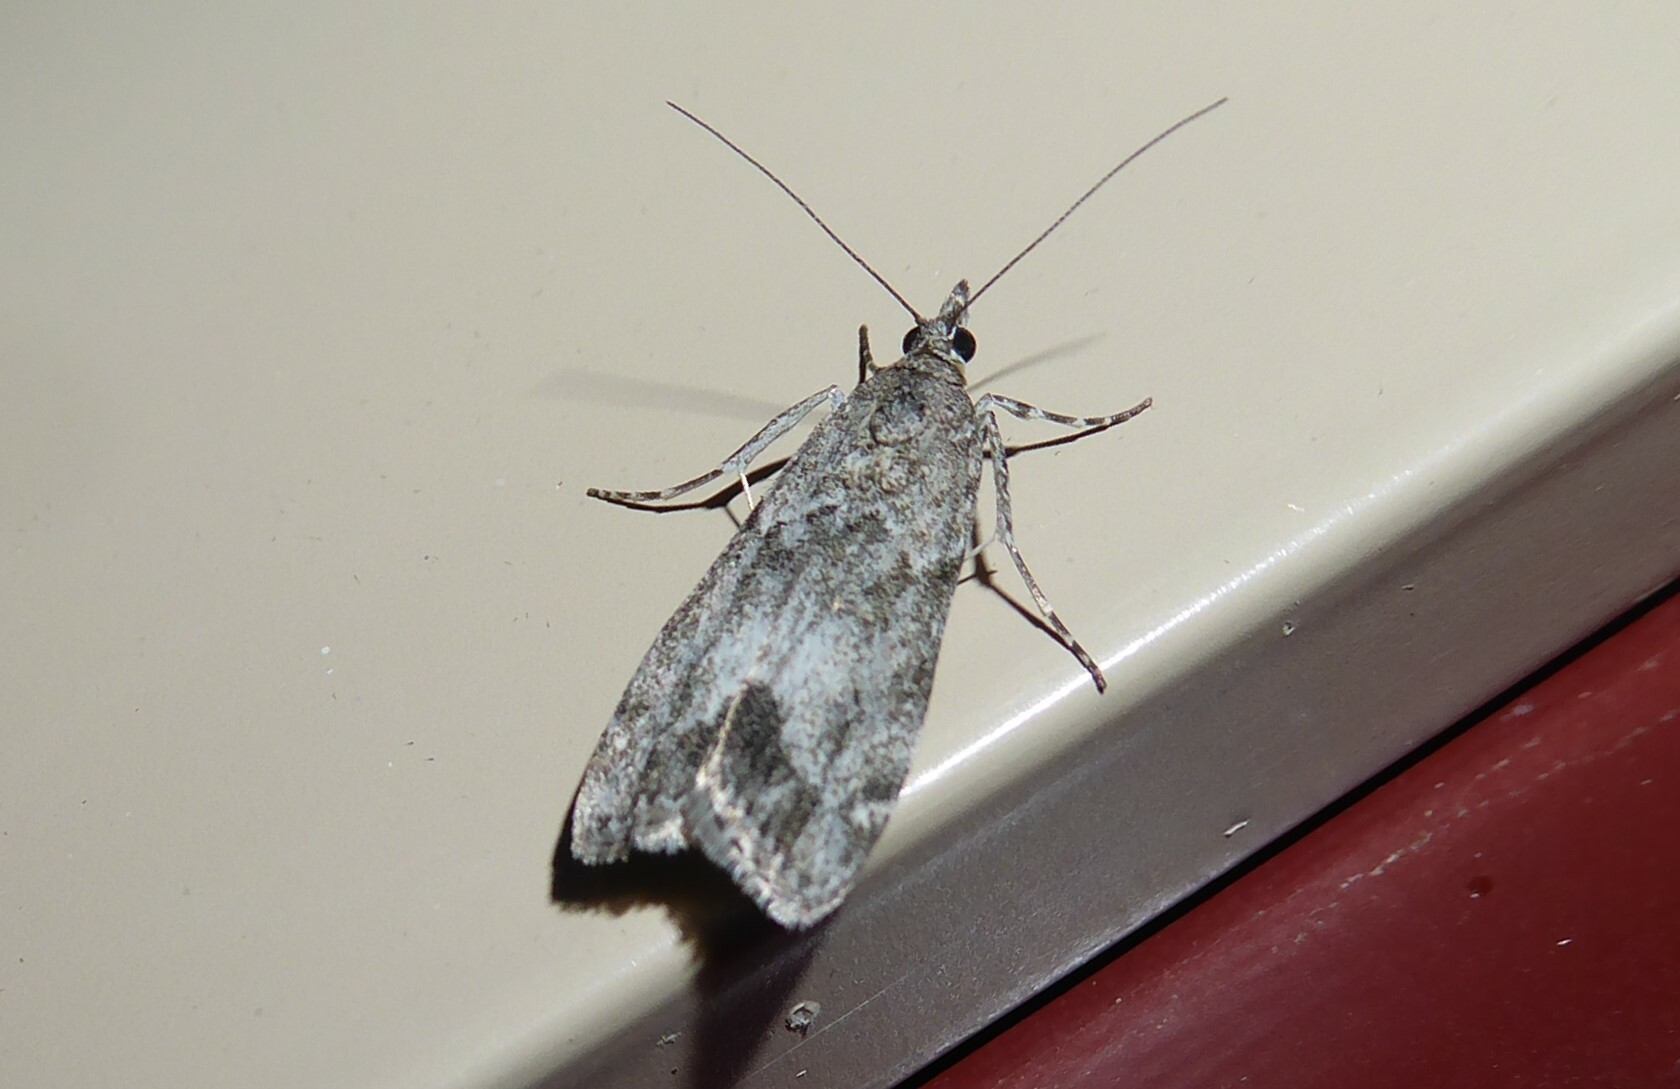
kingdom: Animalia
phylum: Arthropoda
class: Insecta
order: Lepidoptera
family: Crambidae
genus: Eudonia
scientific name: Eudonia rakaiensis
